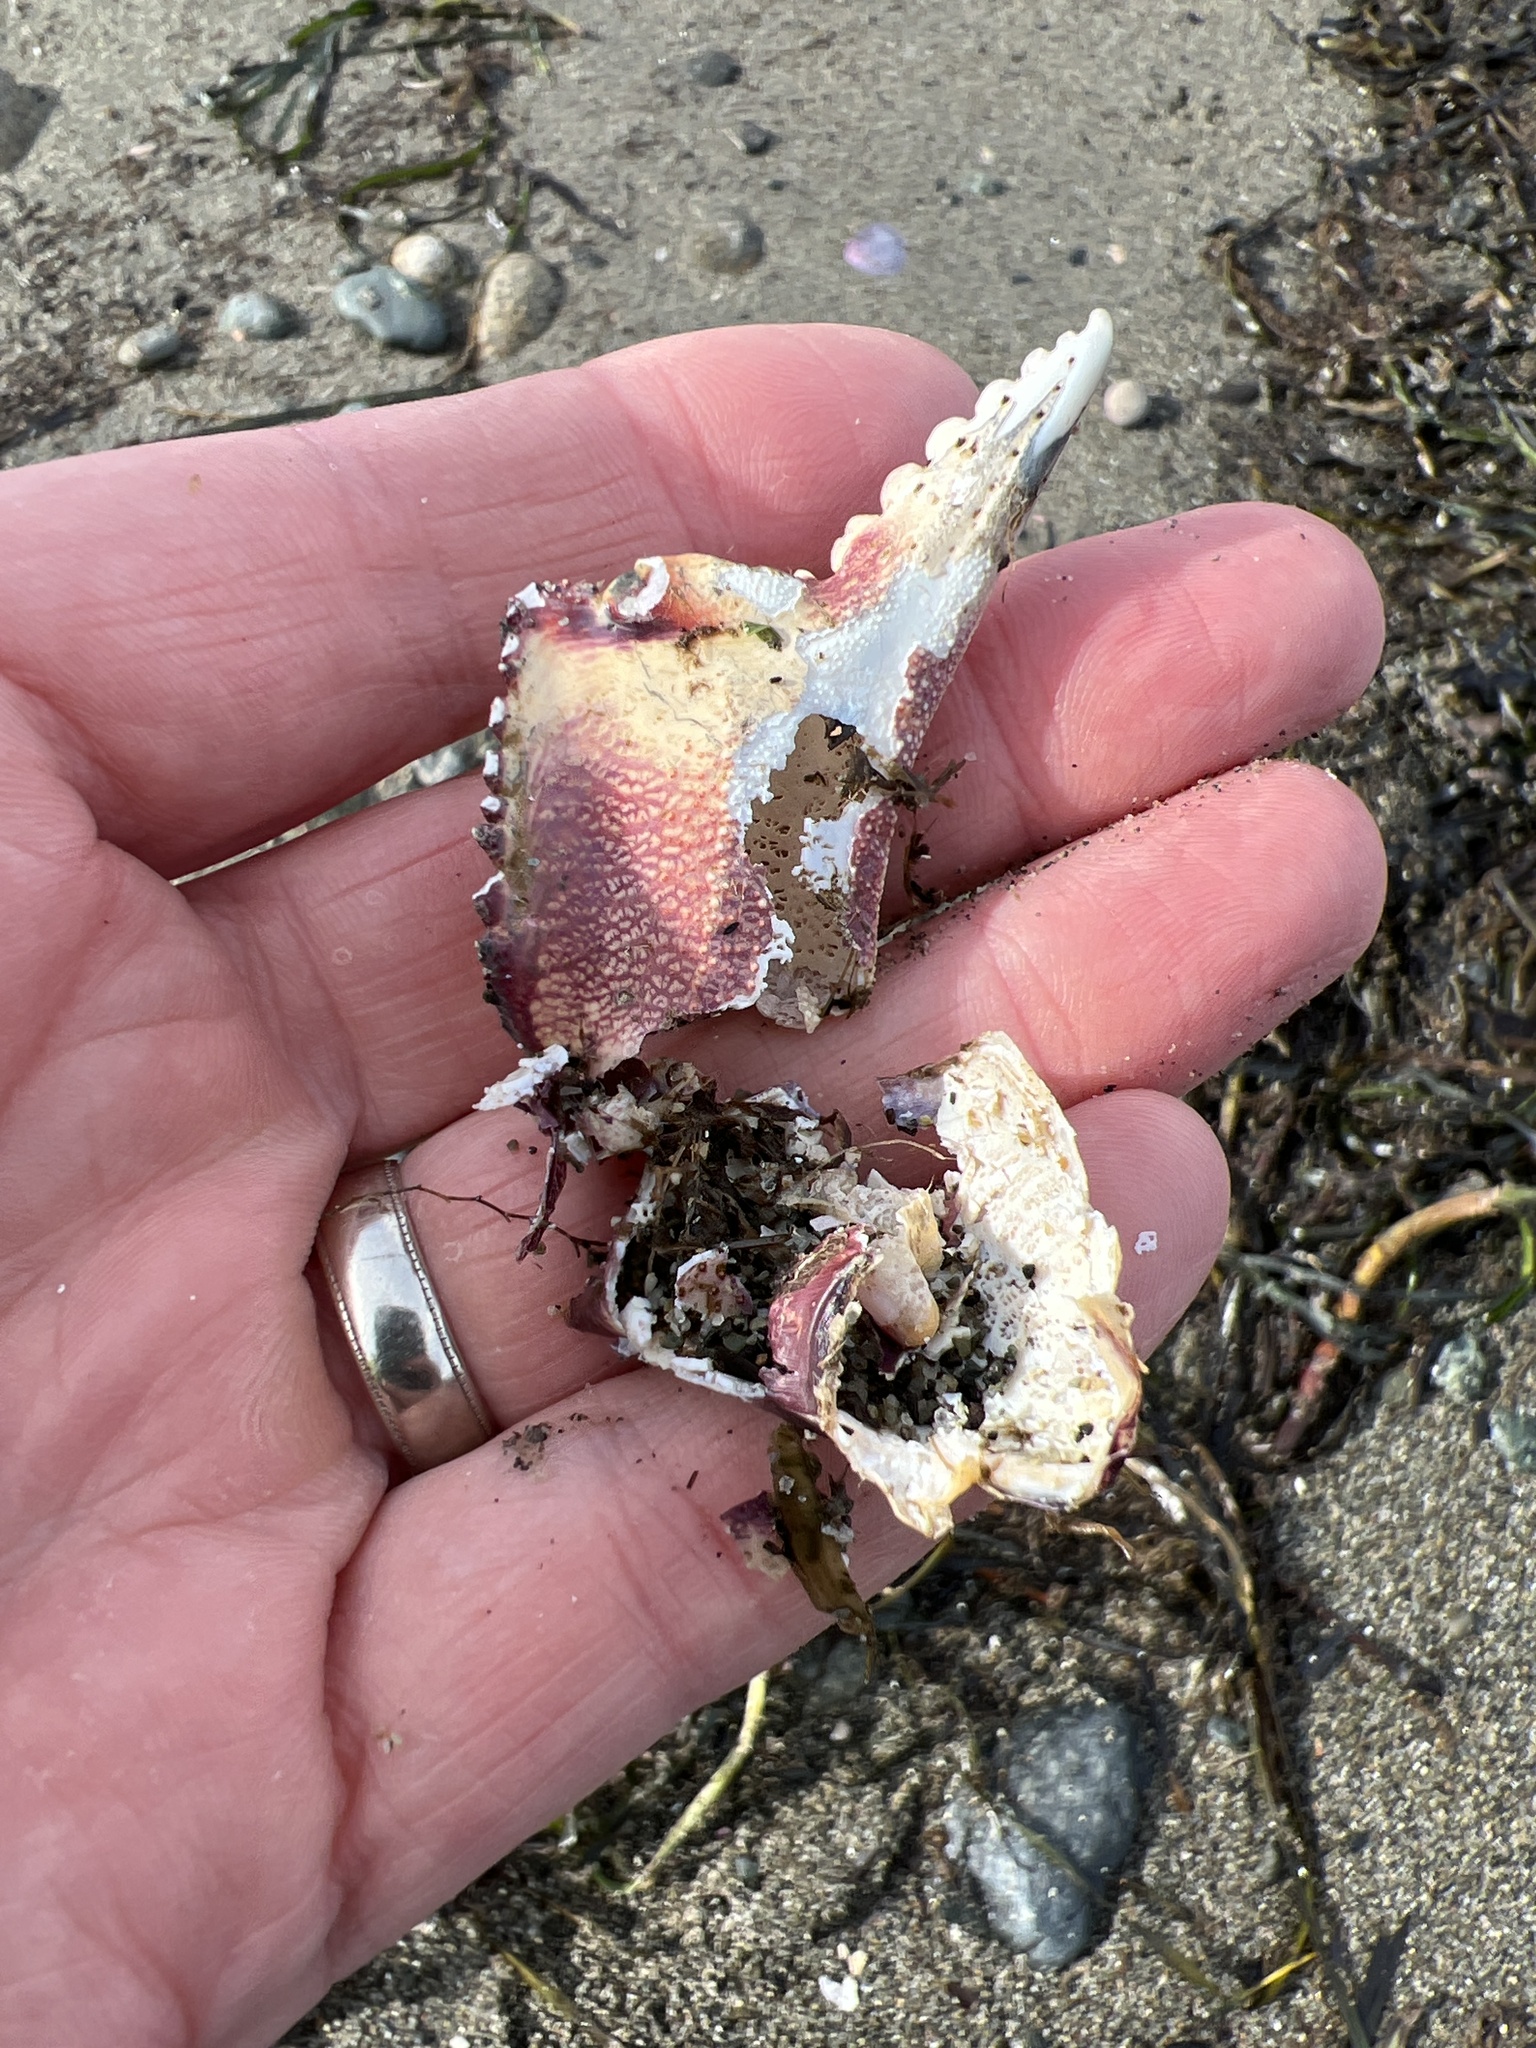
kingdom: Animalia
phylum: Arthropoda
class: Malacostraca
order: Decapoda
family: Cancridae
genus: Metacarcinus
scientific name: Metacarcinus magister
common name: Californian crab
